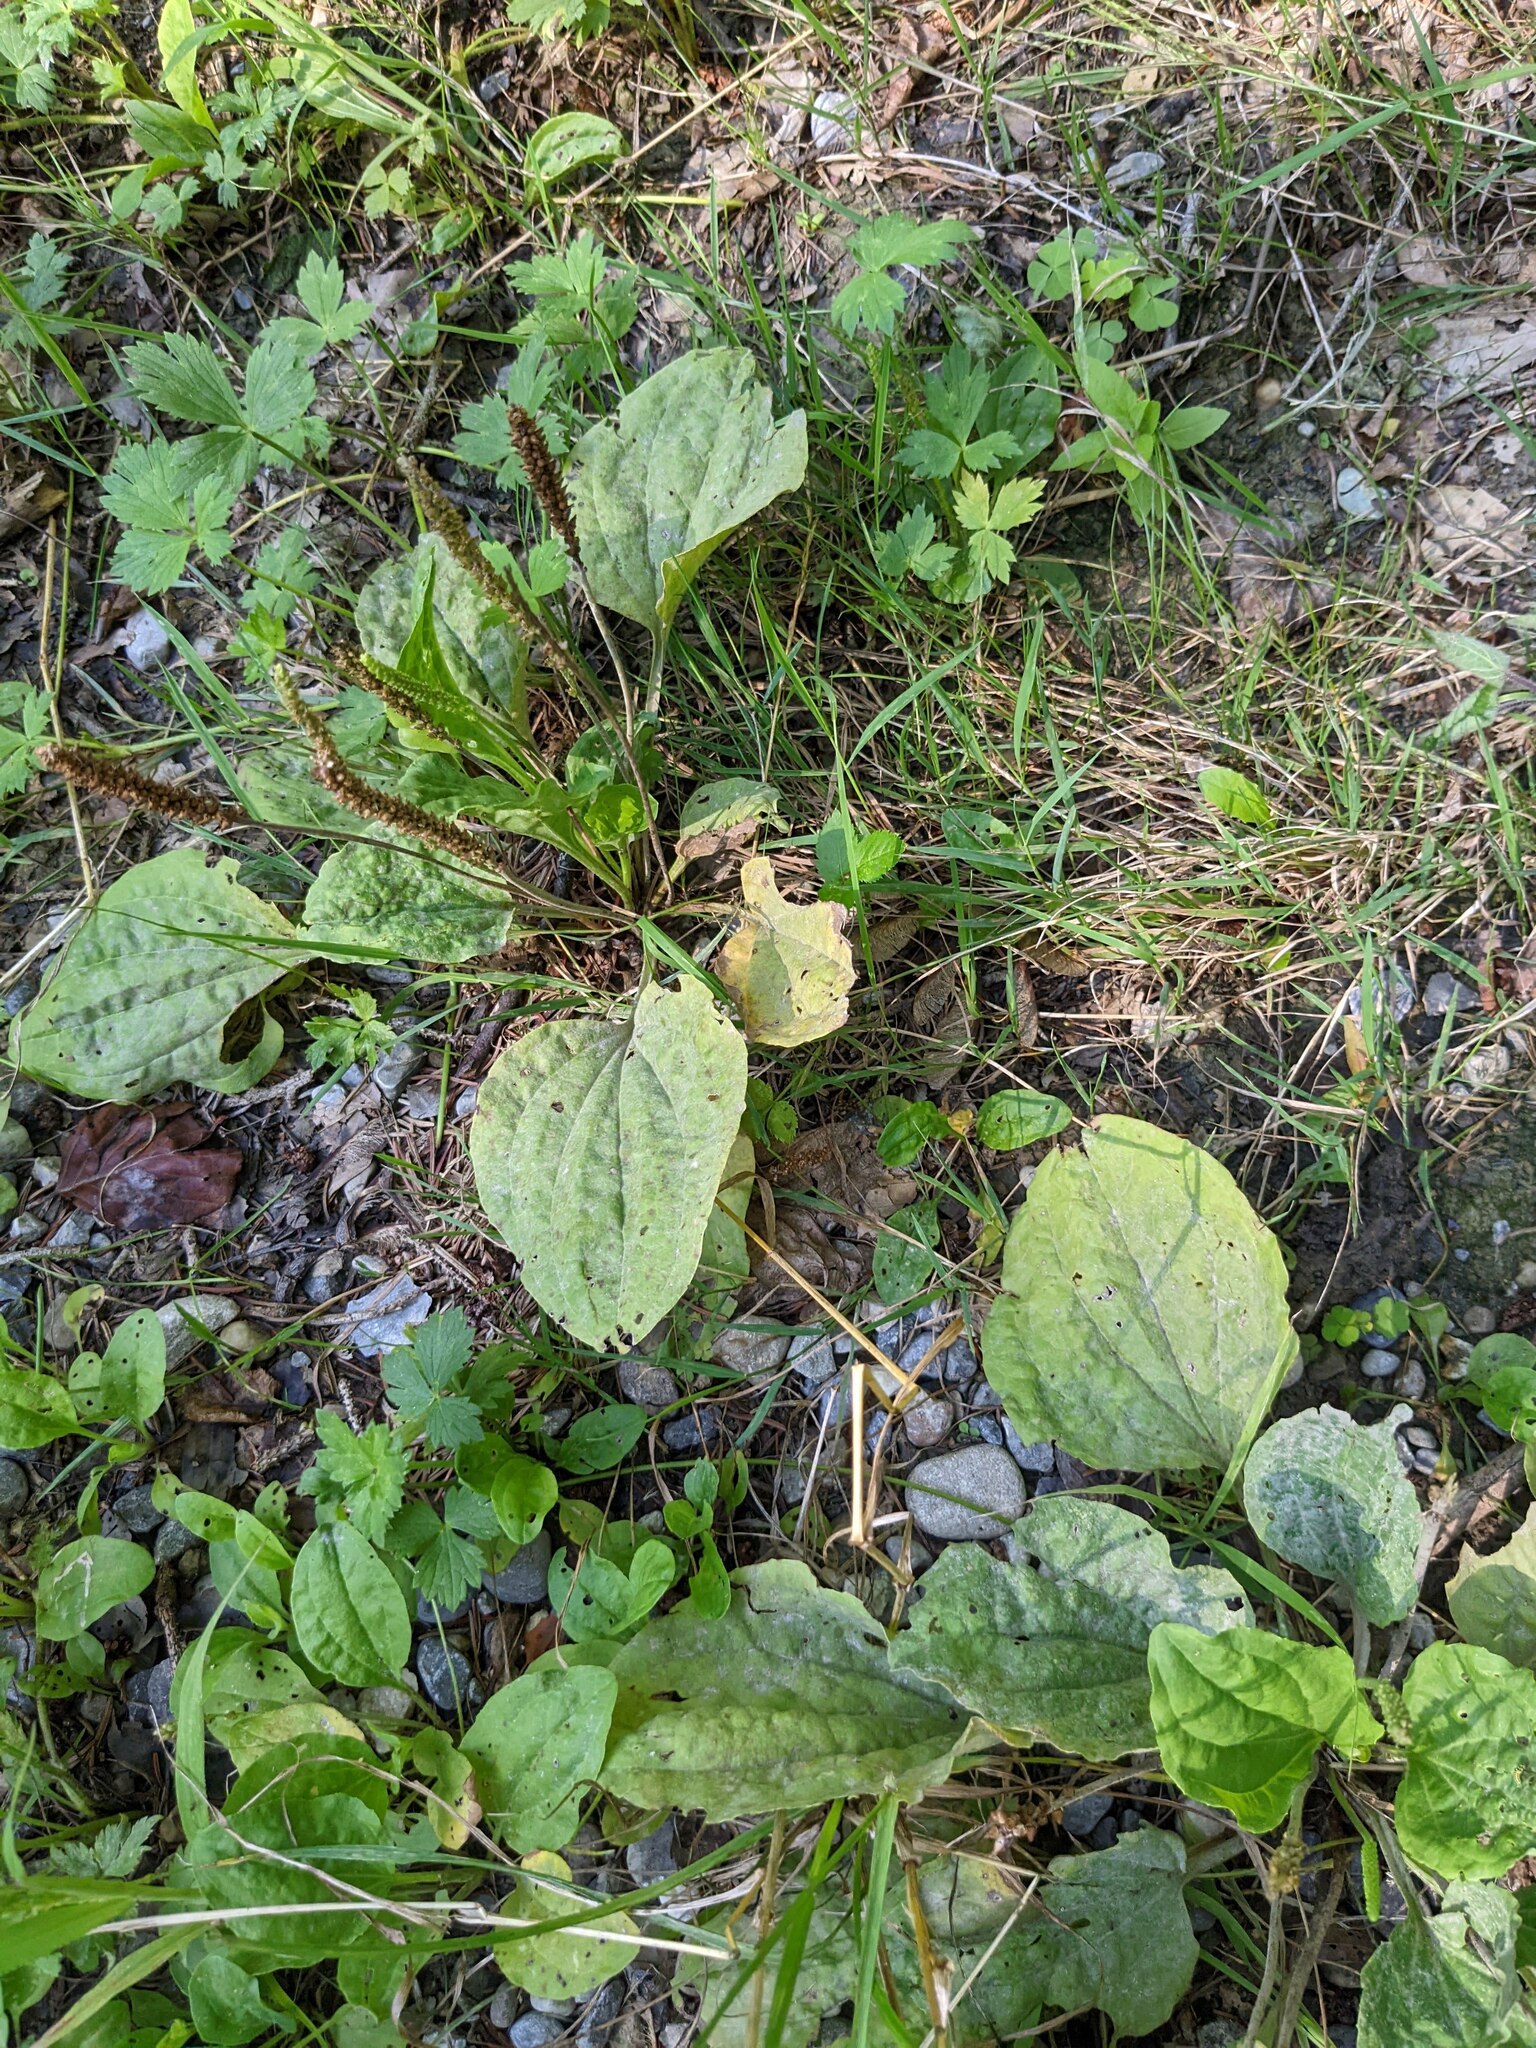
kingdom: Plantae
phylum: Tracheophyta
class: Magnoliopsida
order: Lamiales
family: Plantaginaceae
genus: Plantago
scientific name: Plantago major
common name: Common plantain
